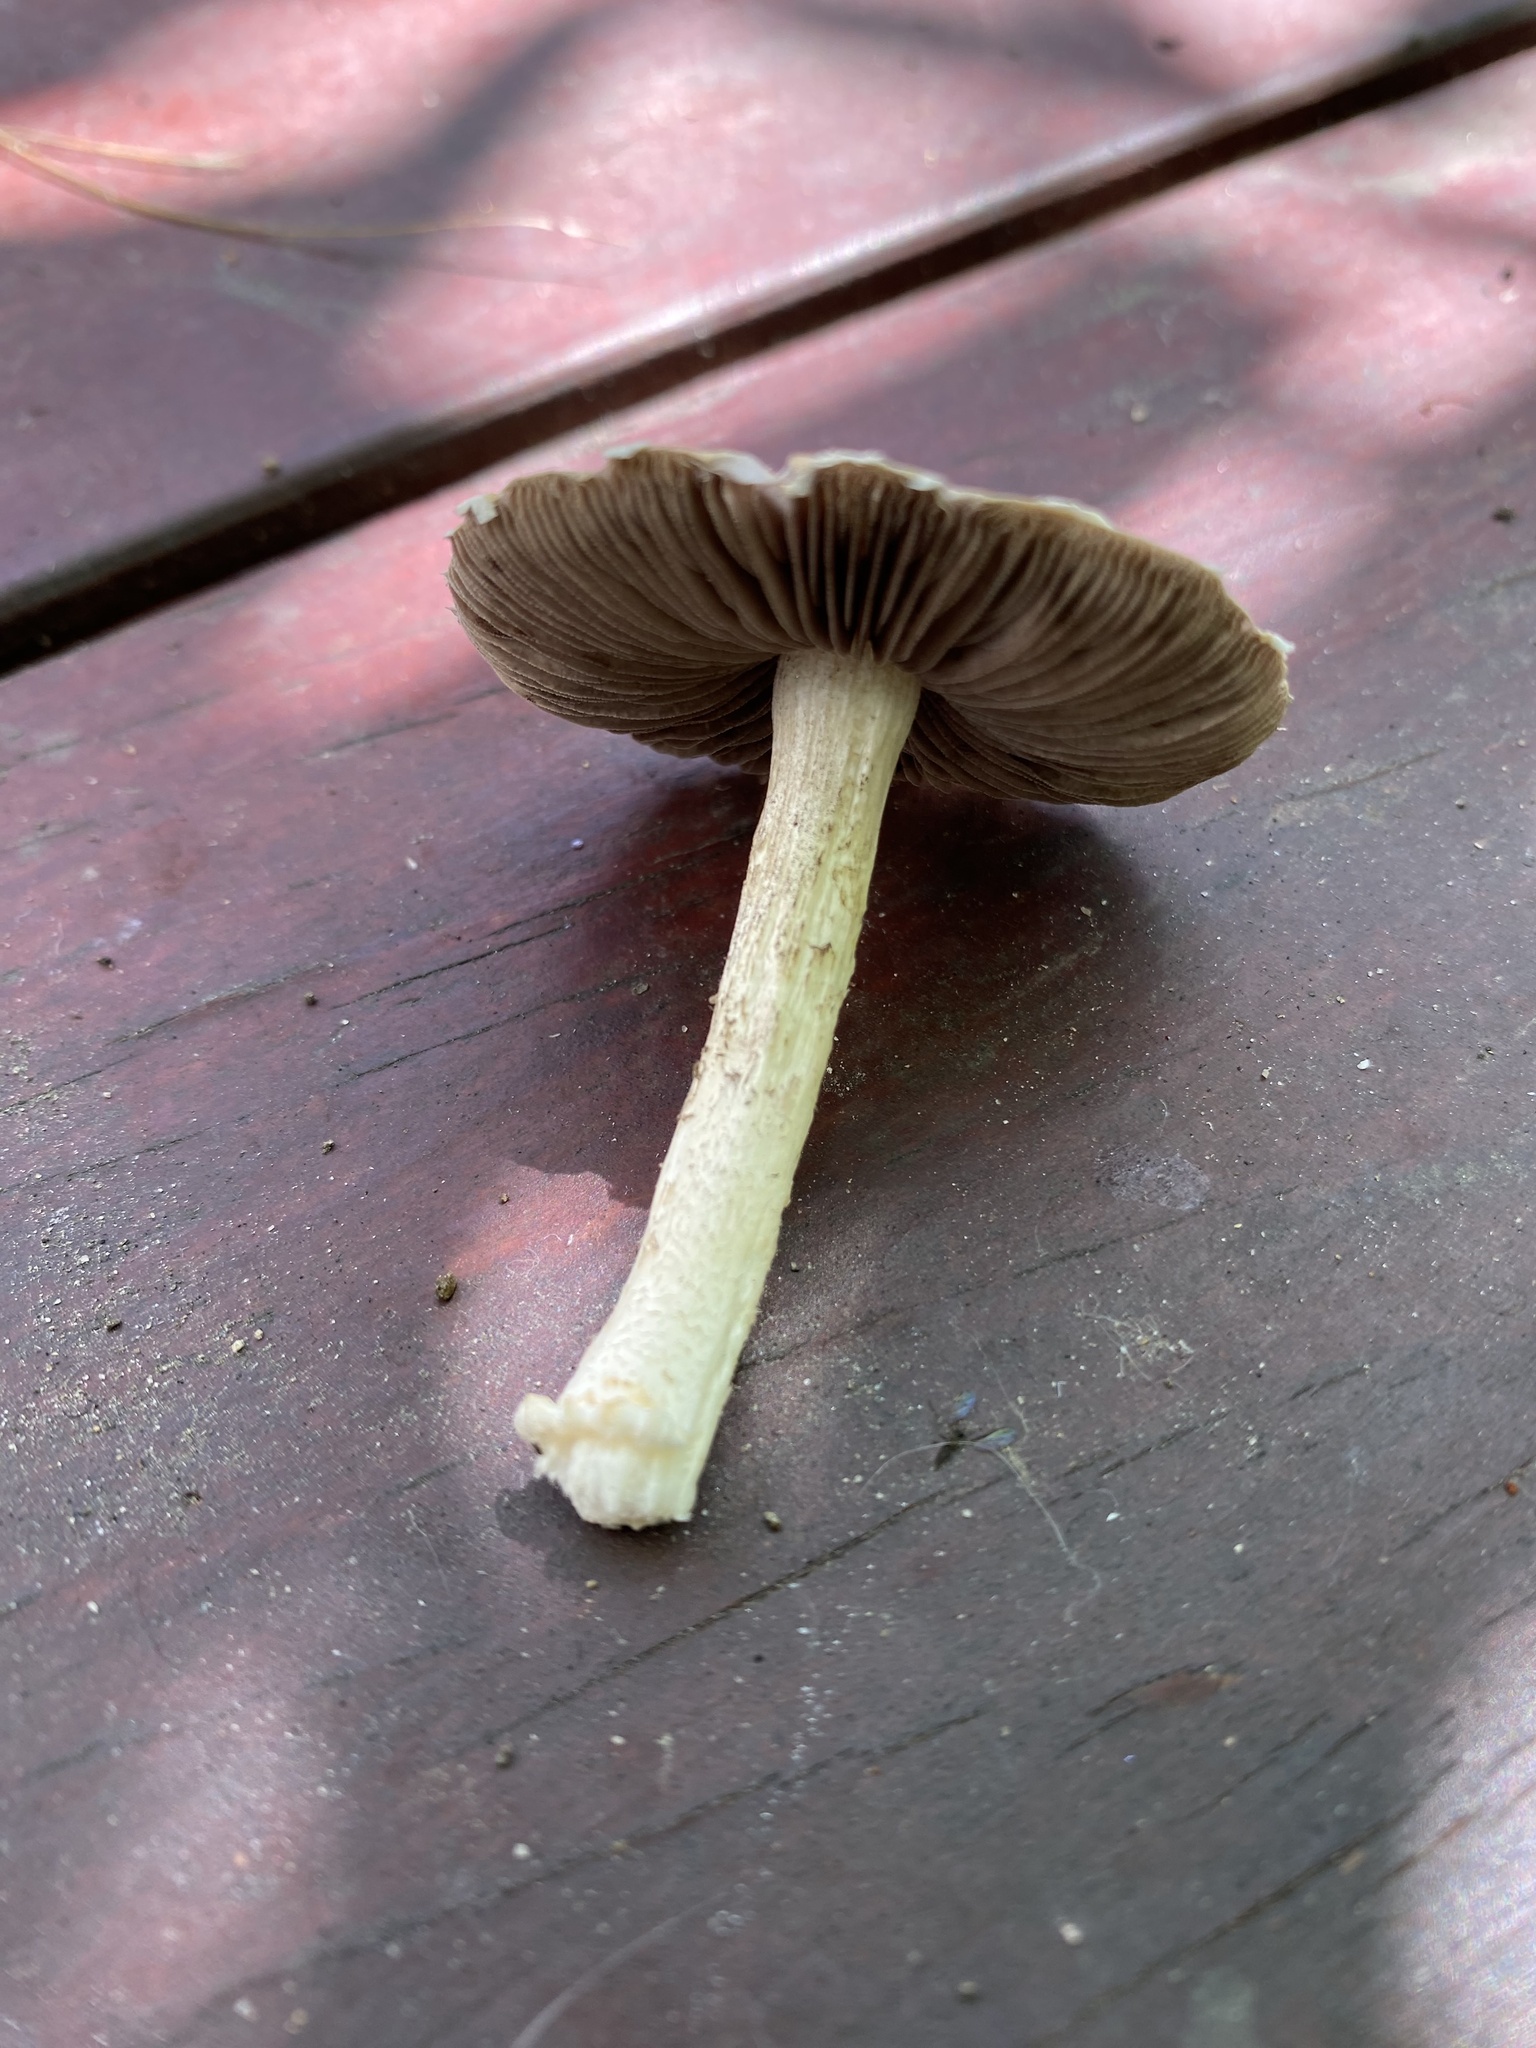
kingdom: Fungi
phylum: Basidiomycota
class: Agaricomycetes
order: Agaricales
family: Strophariaceae
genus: Leratiomyces
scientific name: Leratiomyces percevalii
